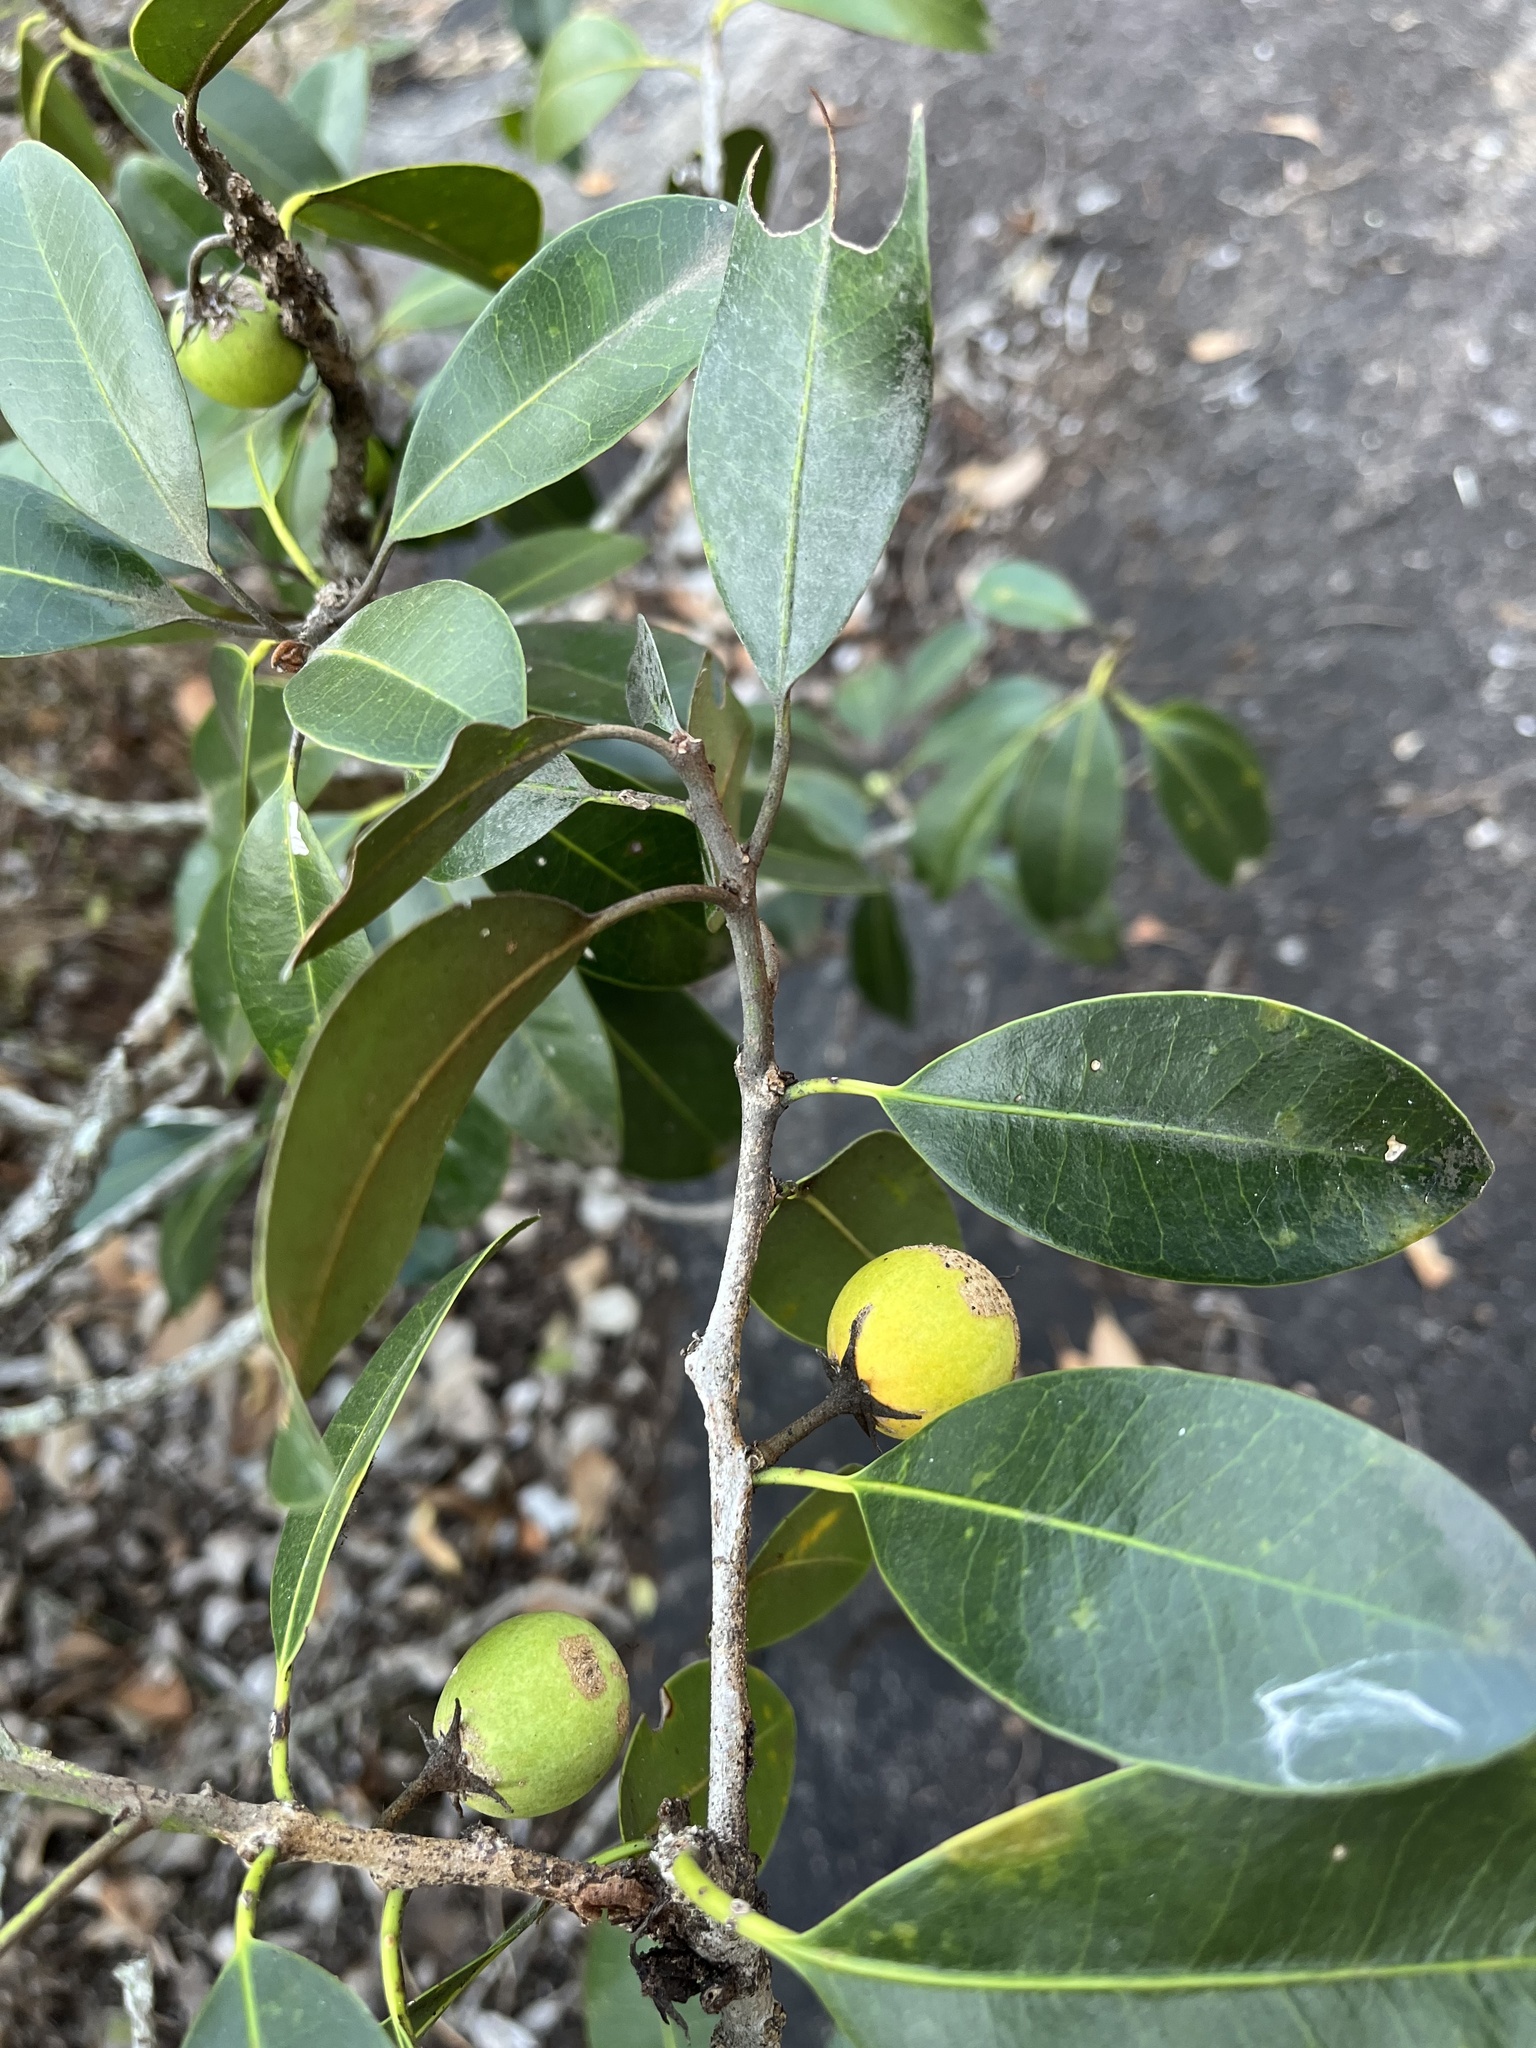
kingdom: Plantae
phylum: Tracheophyta
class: Magnoliopsida
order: Ericales
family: Sapotaceae
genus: Mimusops
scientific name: Mimusops zeyheri
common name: Transvaal red milkwood
